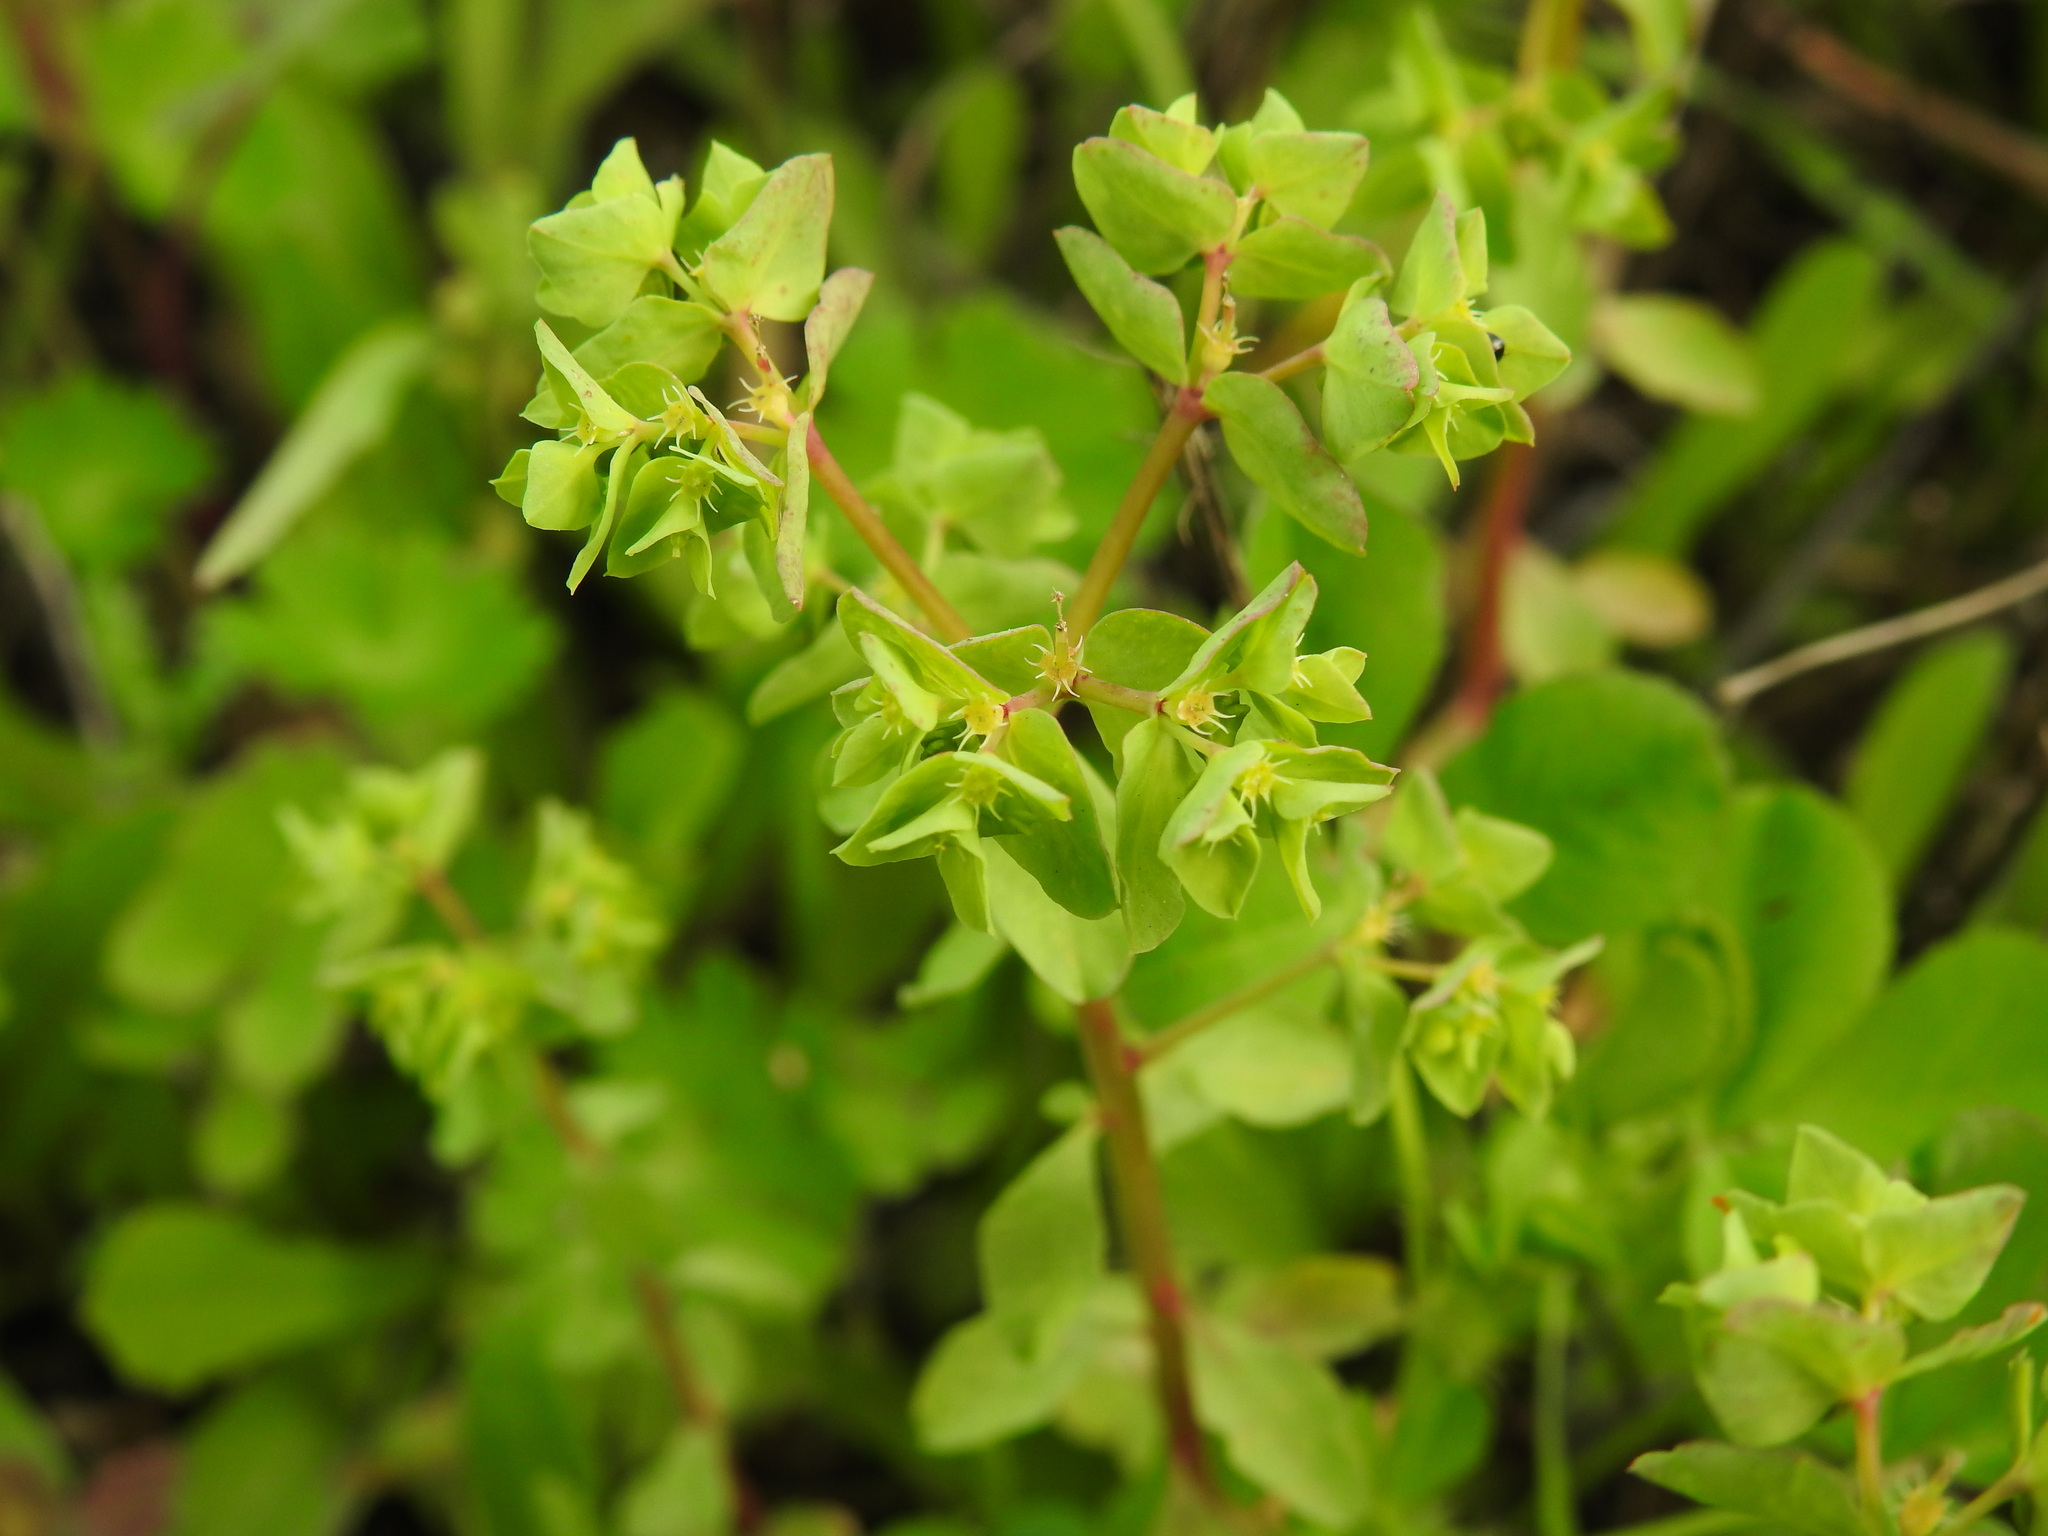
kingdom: Plantae
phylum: Tracheophyta
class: Magnoliopsida
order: Malpighiales
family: Euphorbiaceae
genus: Euphorbia
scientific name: Euphorbia peplus
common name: Petty spurge
